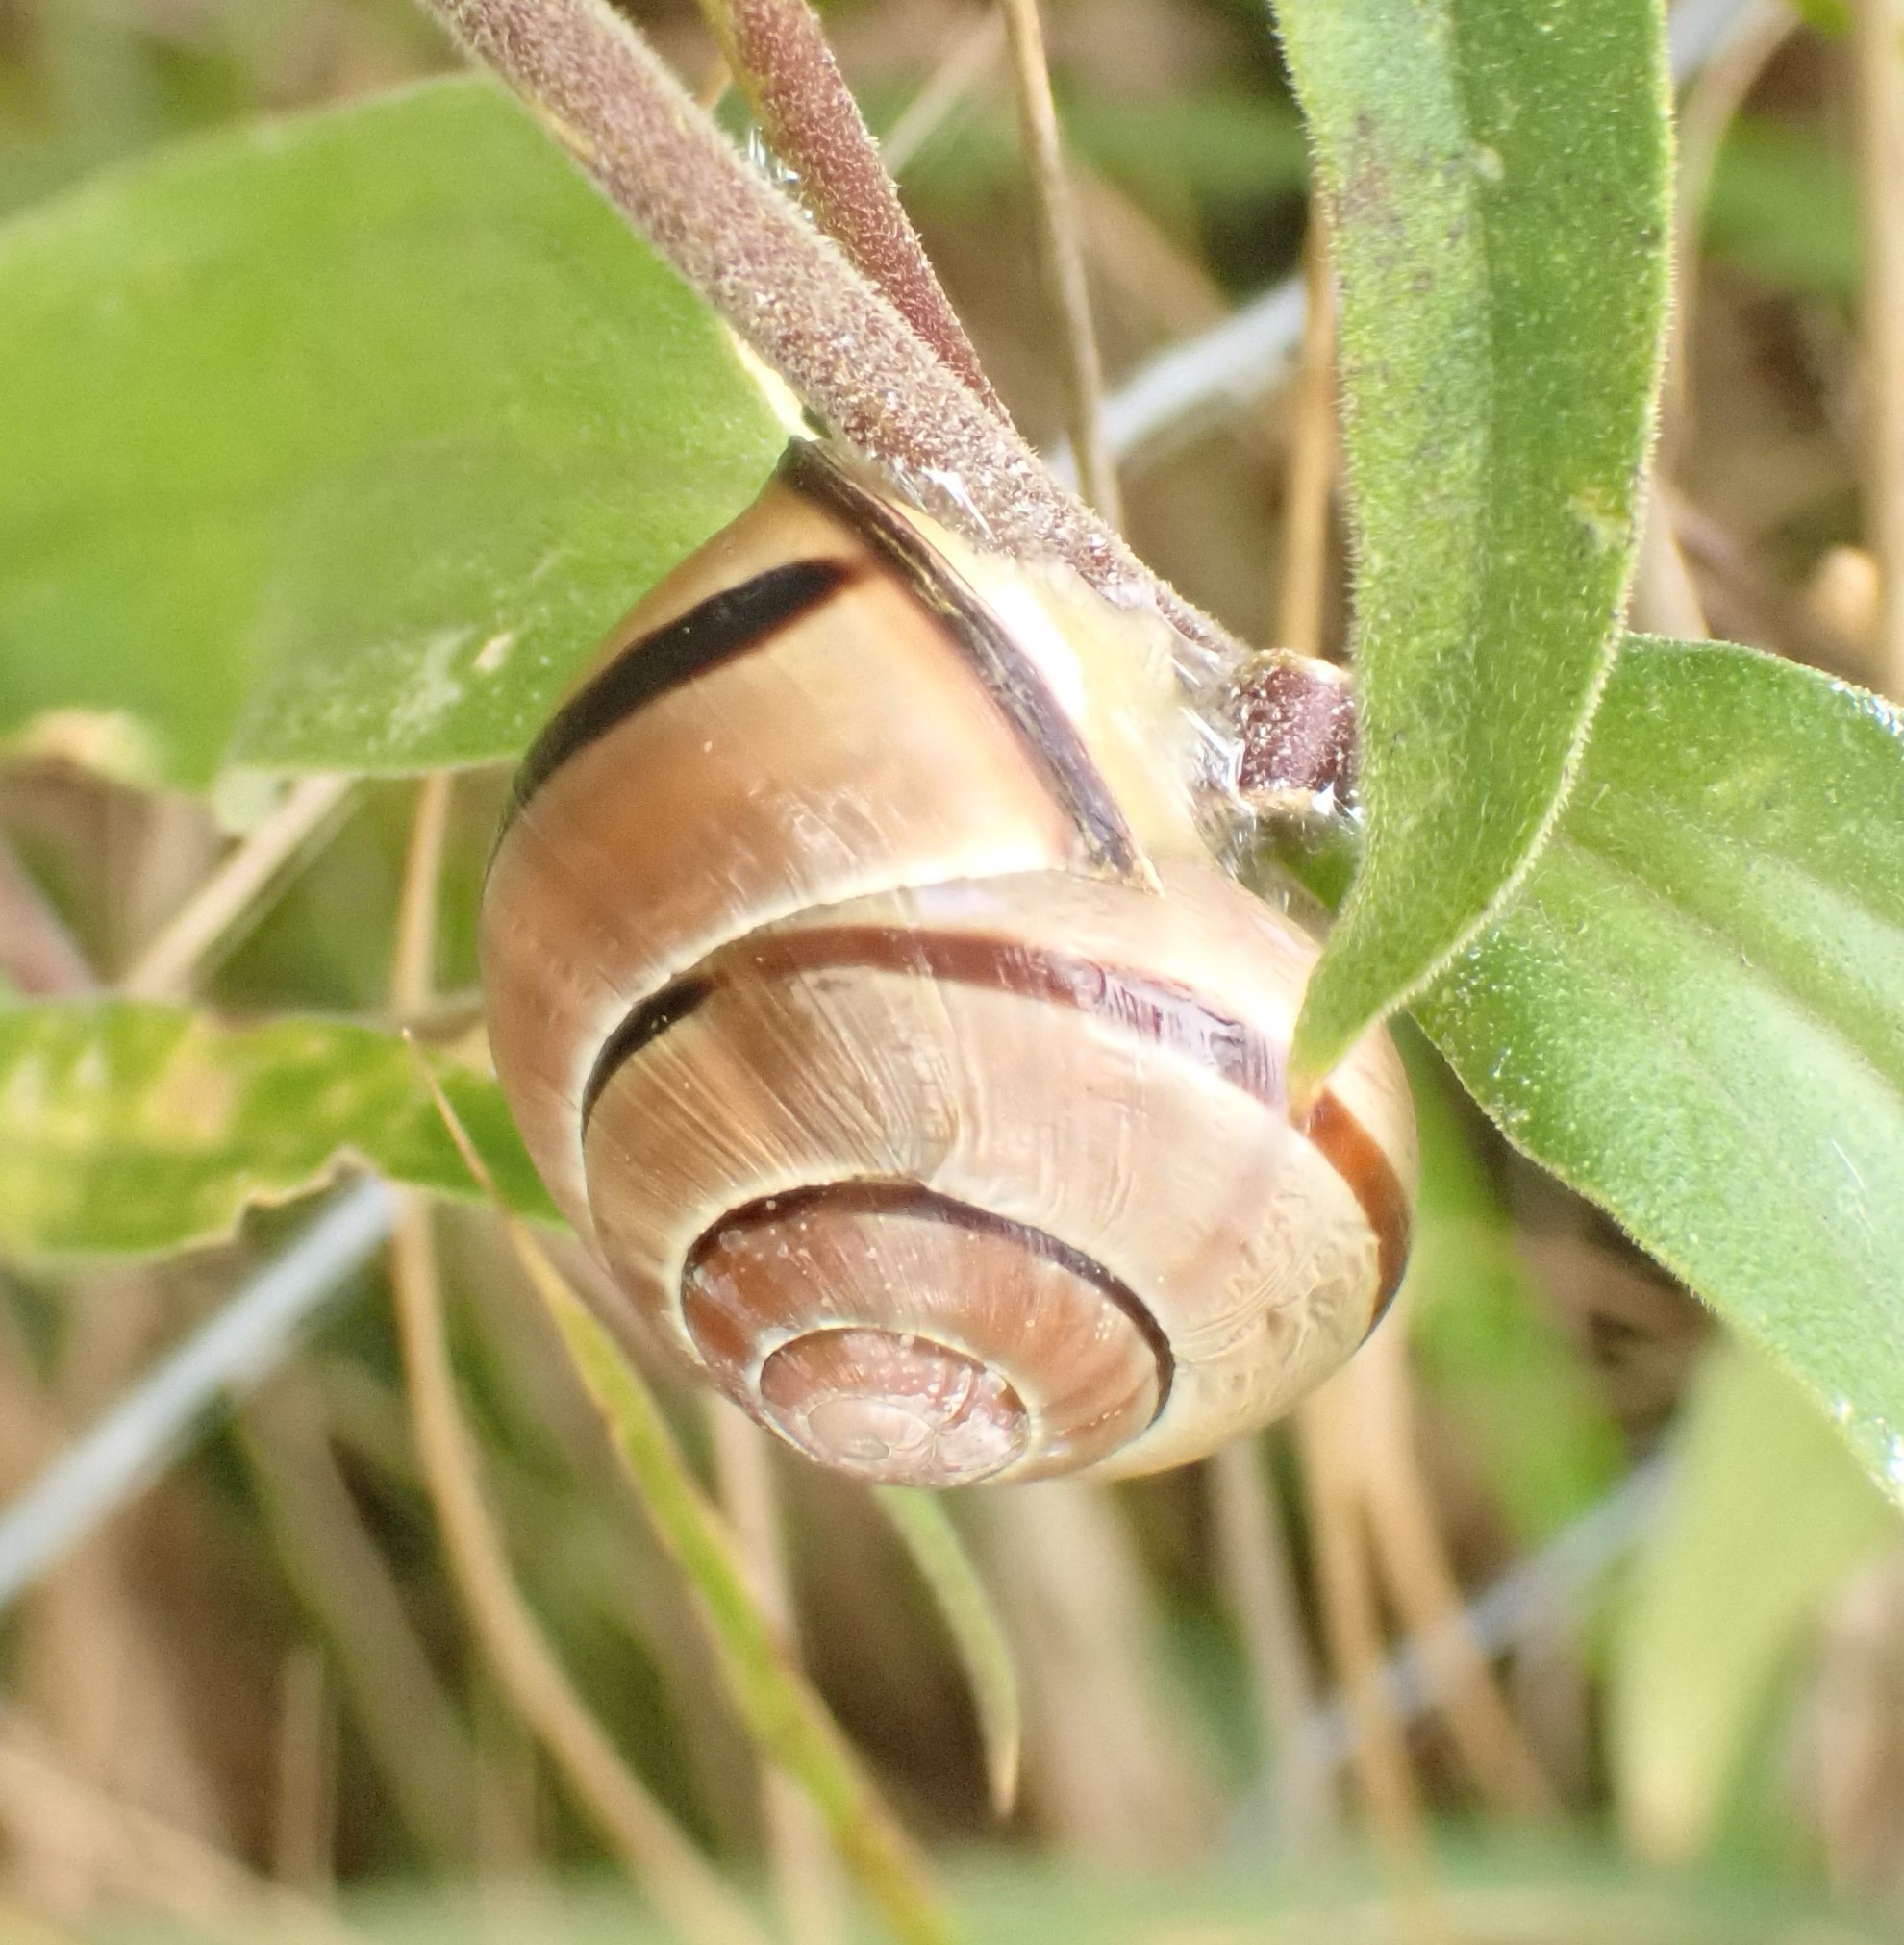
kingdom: Animalia
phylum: Mollusca
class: Gastropoda
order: Stylommatophora
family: Helicidae
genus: Cepaea
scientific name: Cepaea nemoralis
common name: Grovesnail
